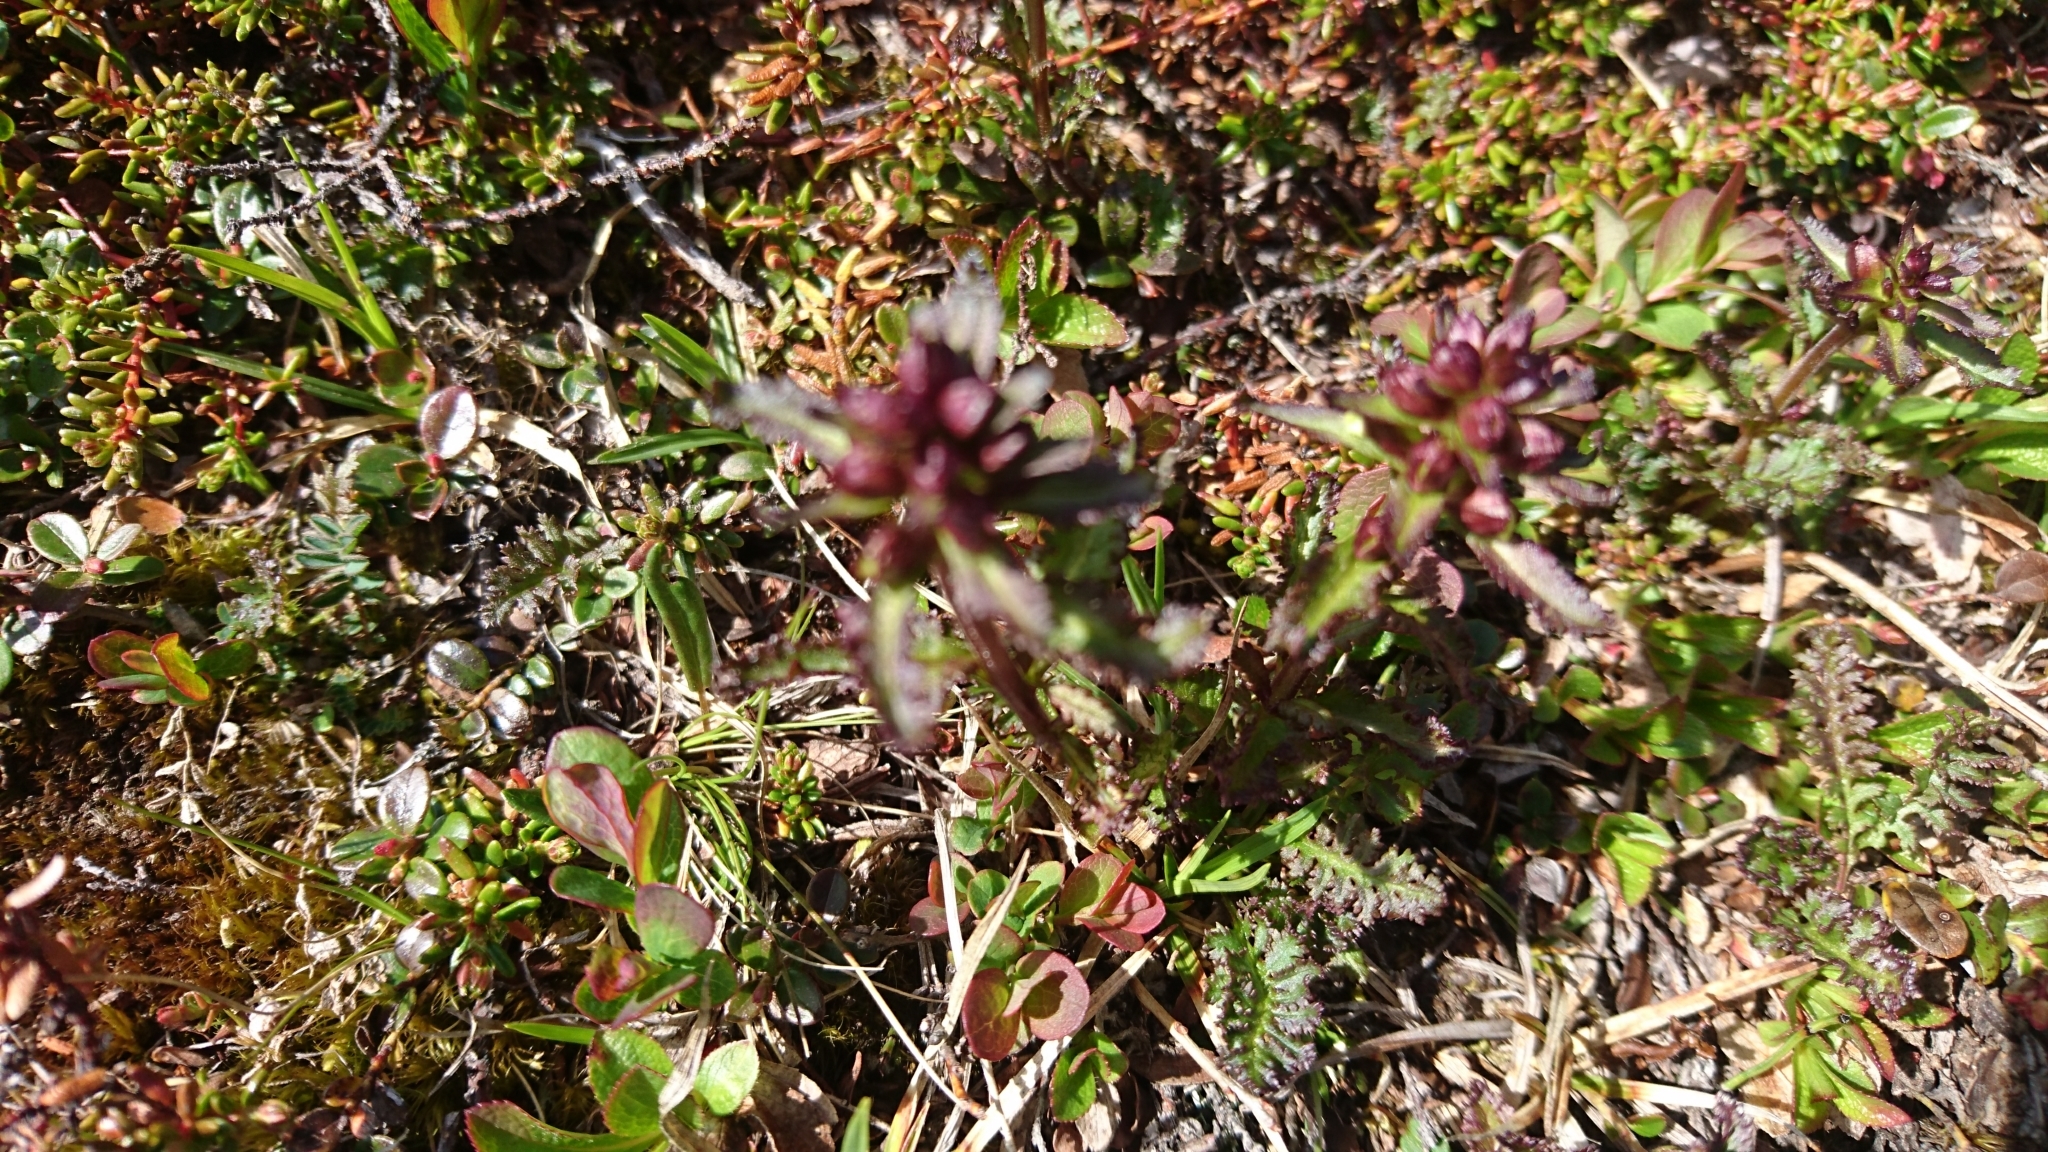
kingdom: Plantae
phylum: Tracheophyta
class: Magnoliopsida
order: Lamiales
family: Orobanchaceae
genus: Pedicularis
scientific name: Pedicularis lapponica
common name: Lapland lousewort
